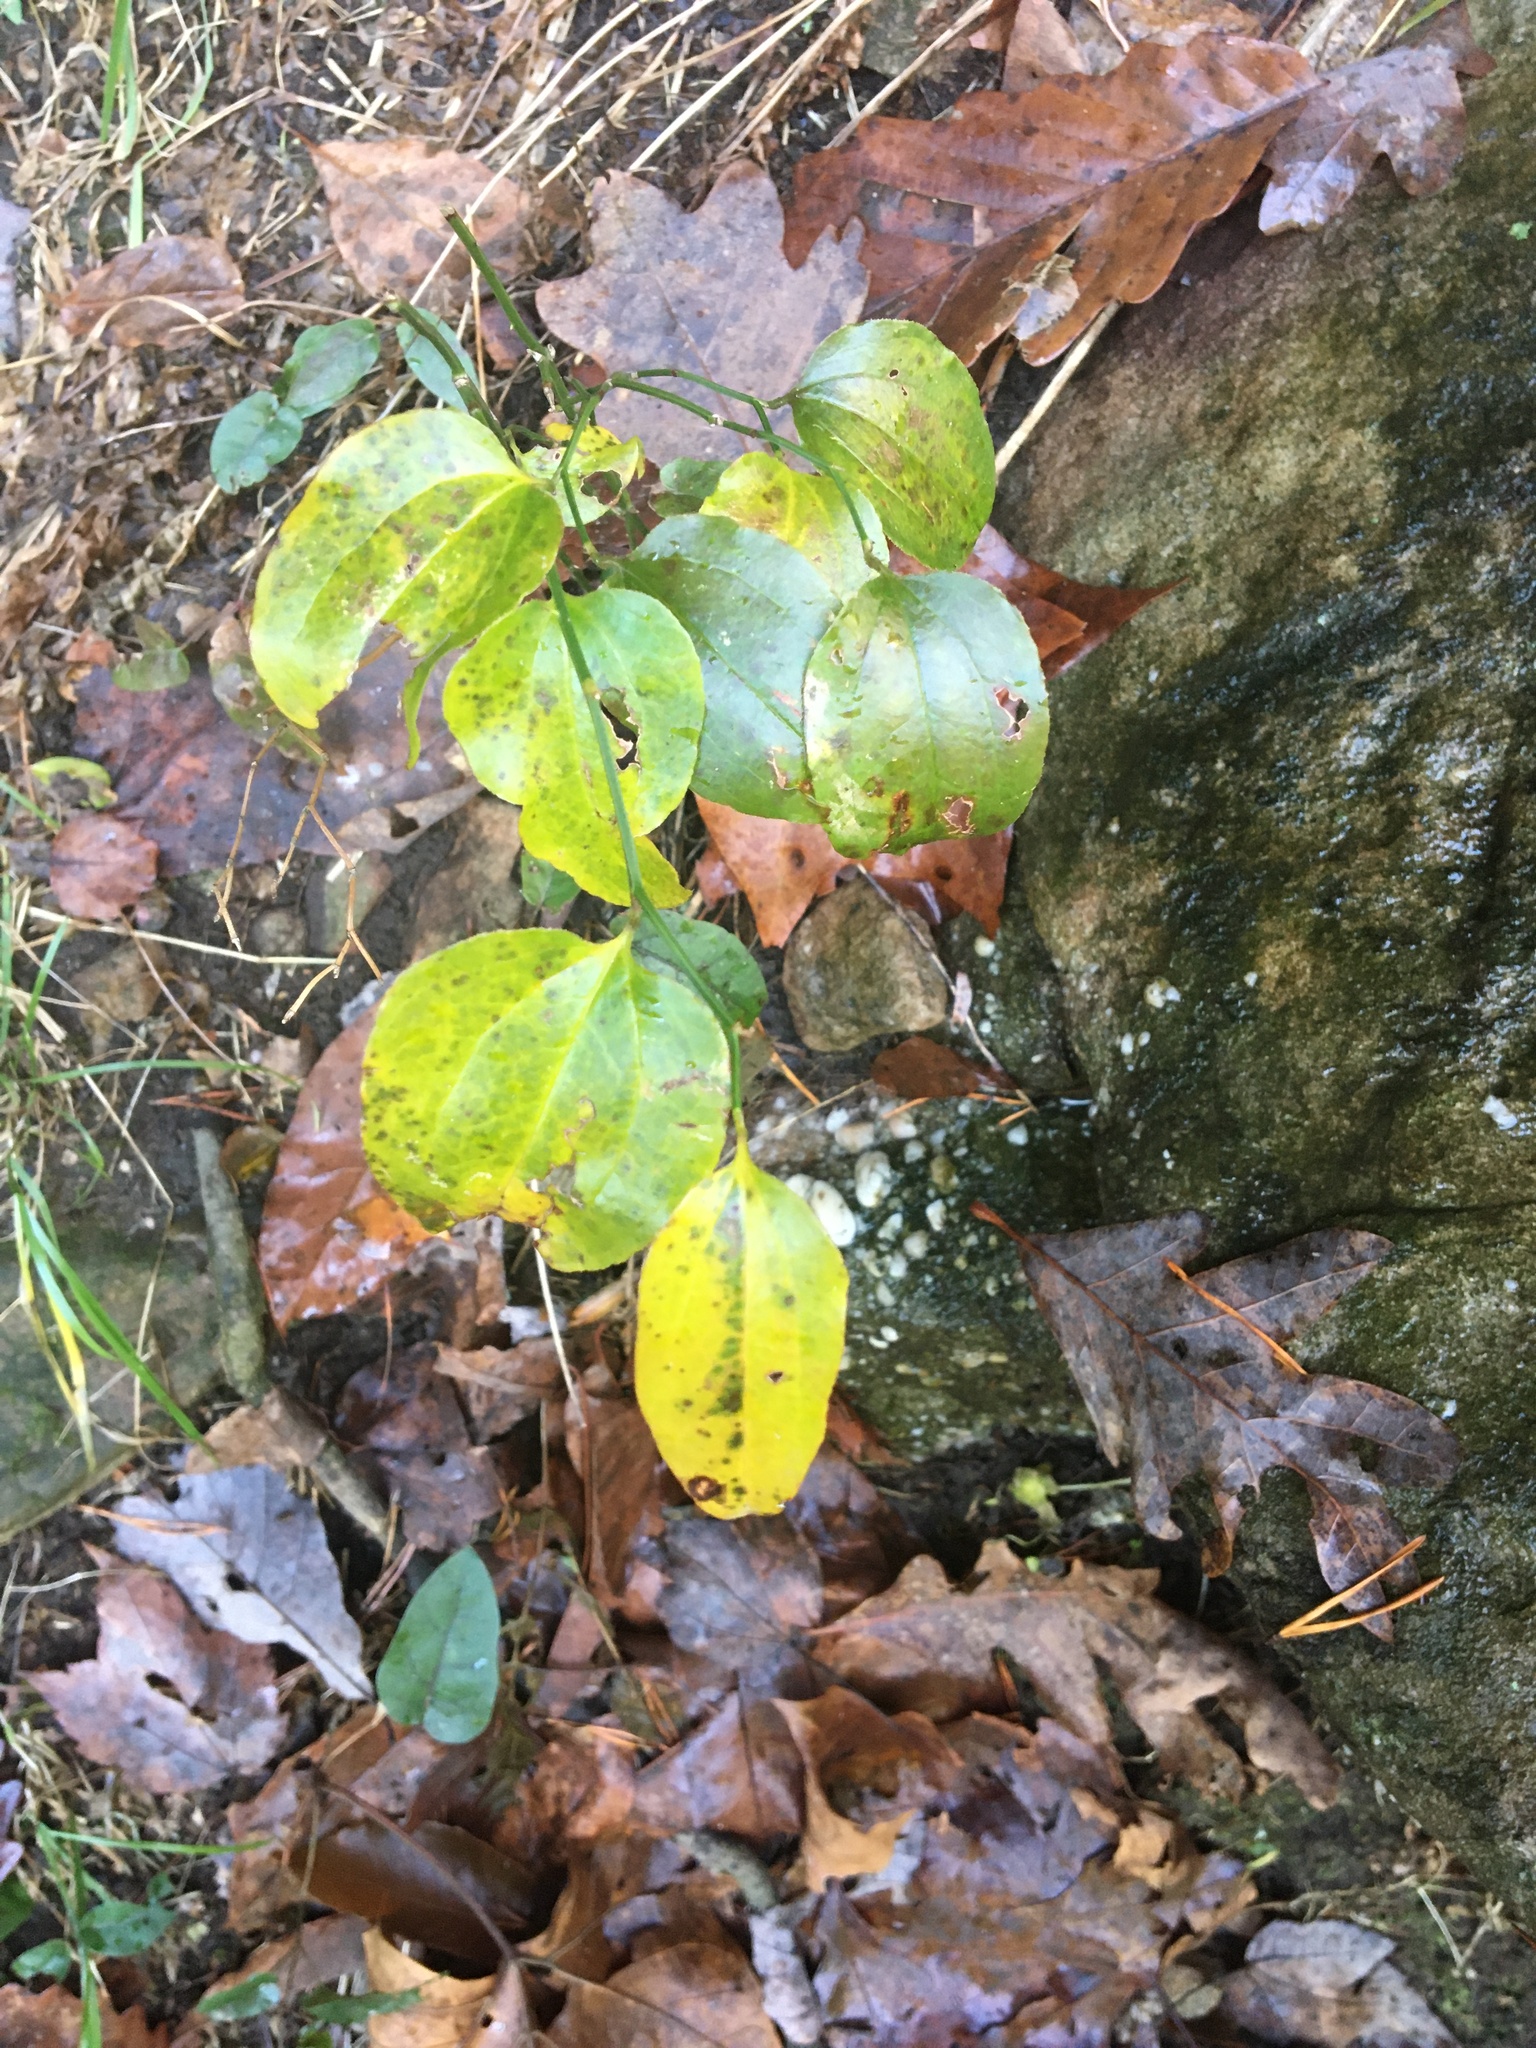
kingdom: Plantae
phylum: Tracheophyta
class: Liliopsida
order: Liliales
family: Smilacaceae
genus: Smilax
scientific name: Smilax rotundifolia
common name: Bullbriar
